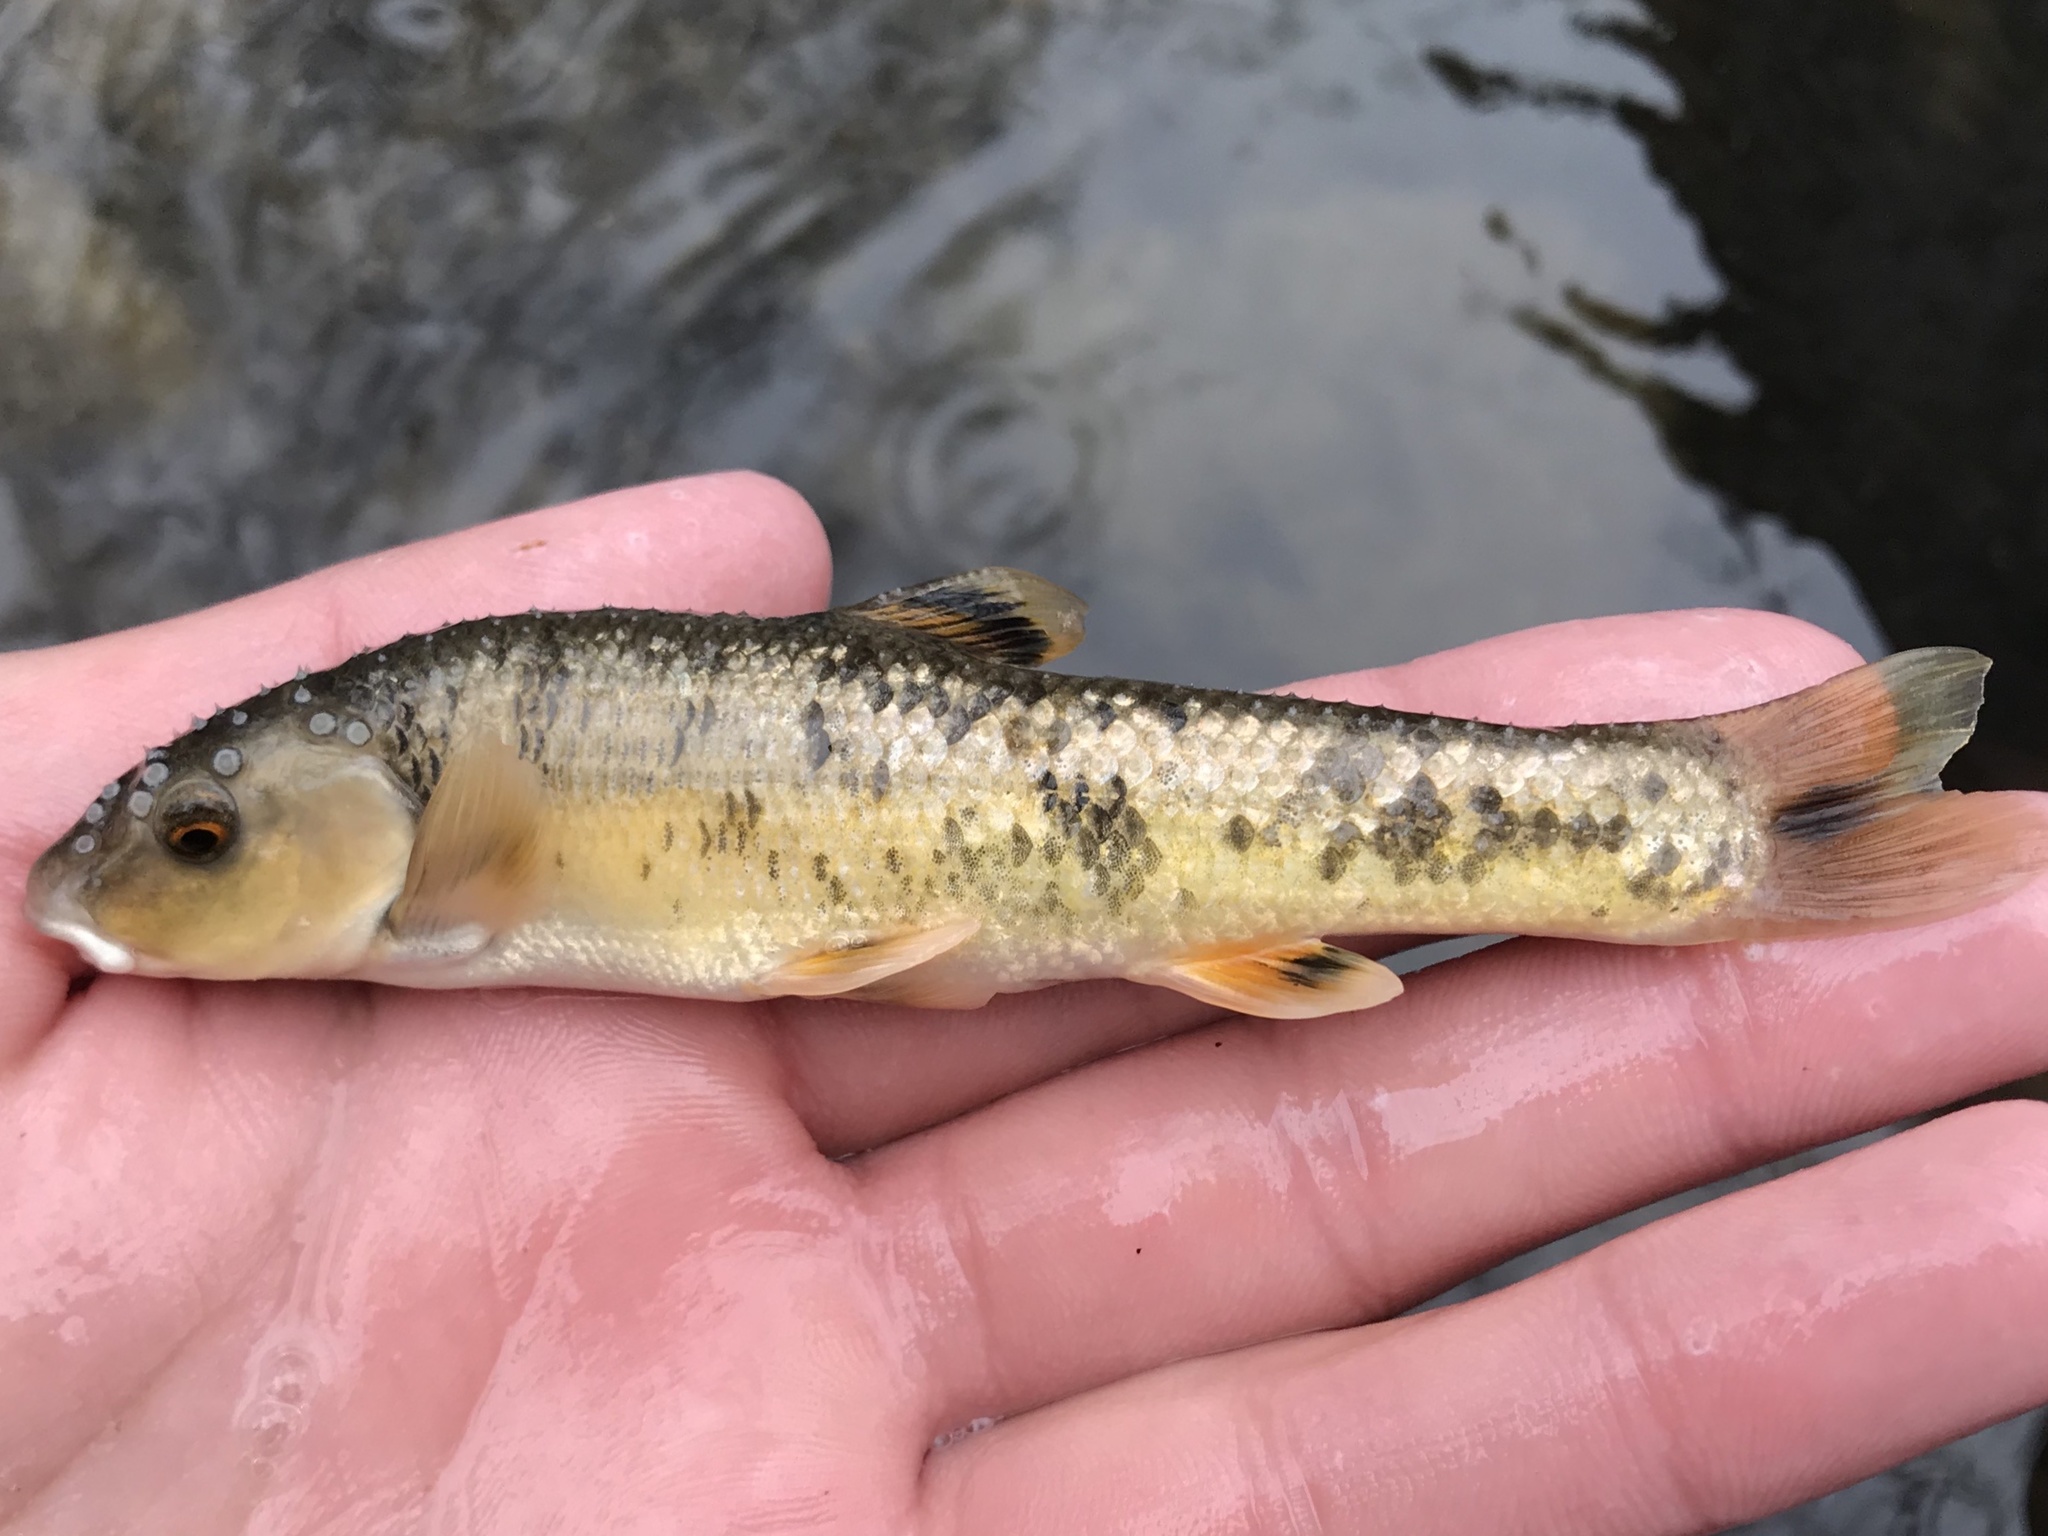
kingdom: Animalia
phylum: Chordata
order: Cypriniformes
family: Cyprinidae
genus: Campostoma
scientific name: Campostoma anomalum
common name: Central stoneroller
